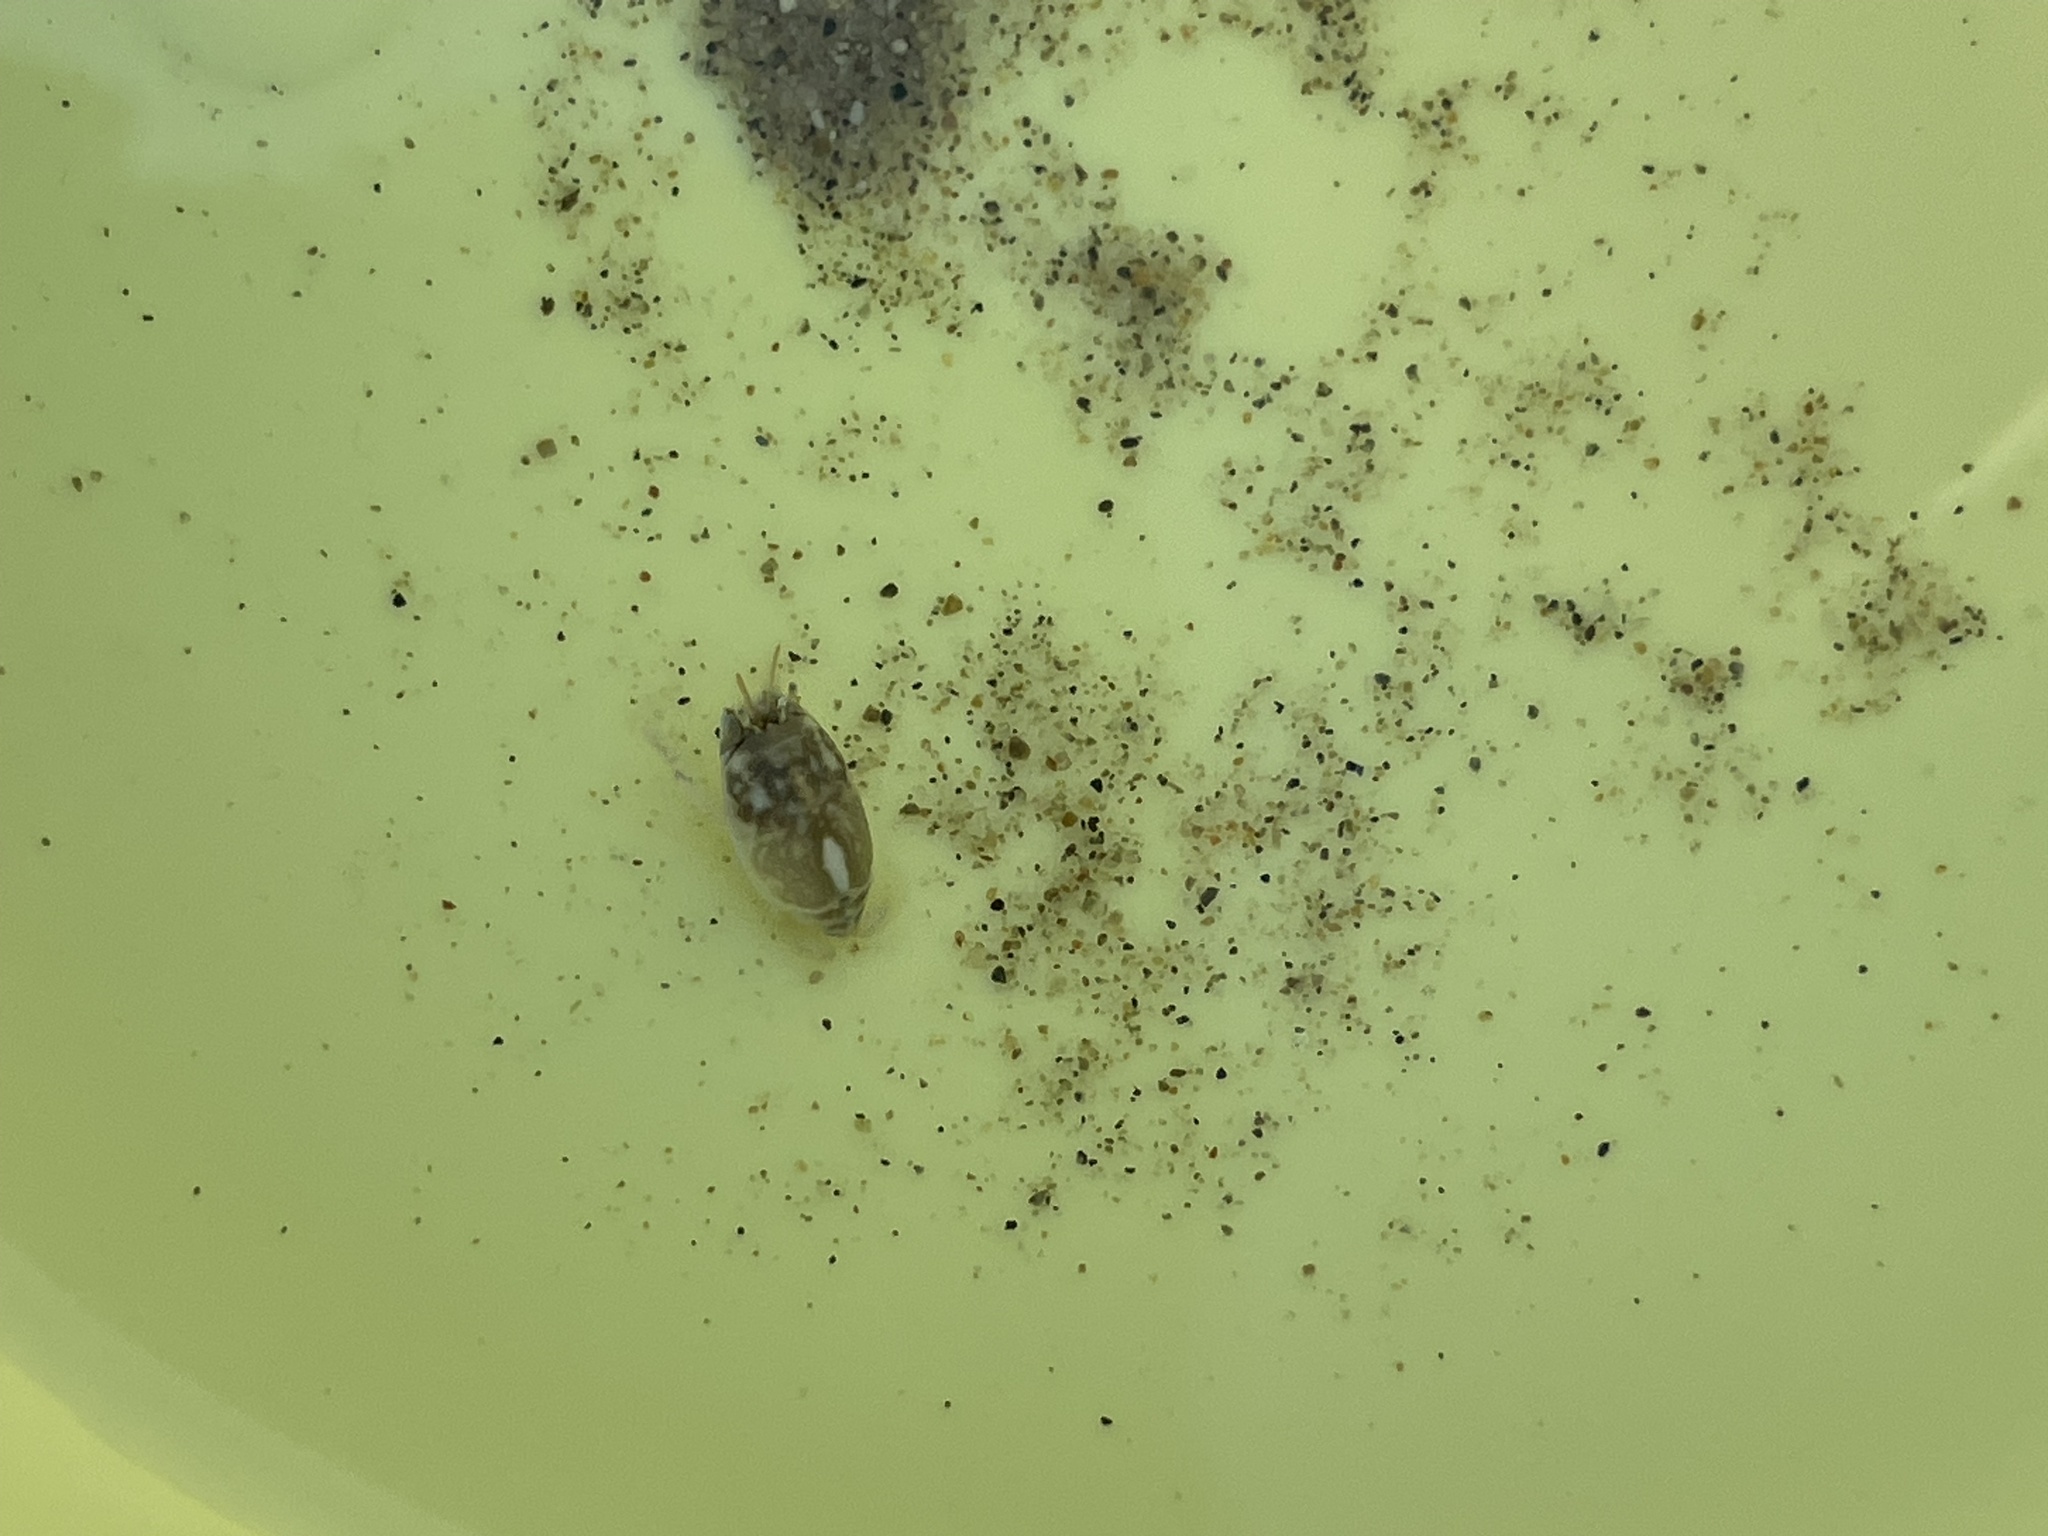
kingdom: Animalia
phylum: Arthropoda
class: Malacostraca
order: Decapoda
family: Hippidae
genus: Emerita
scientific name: Emerita analoga
